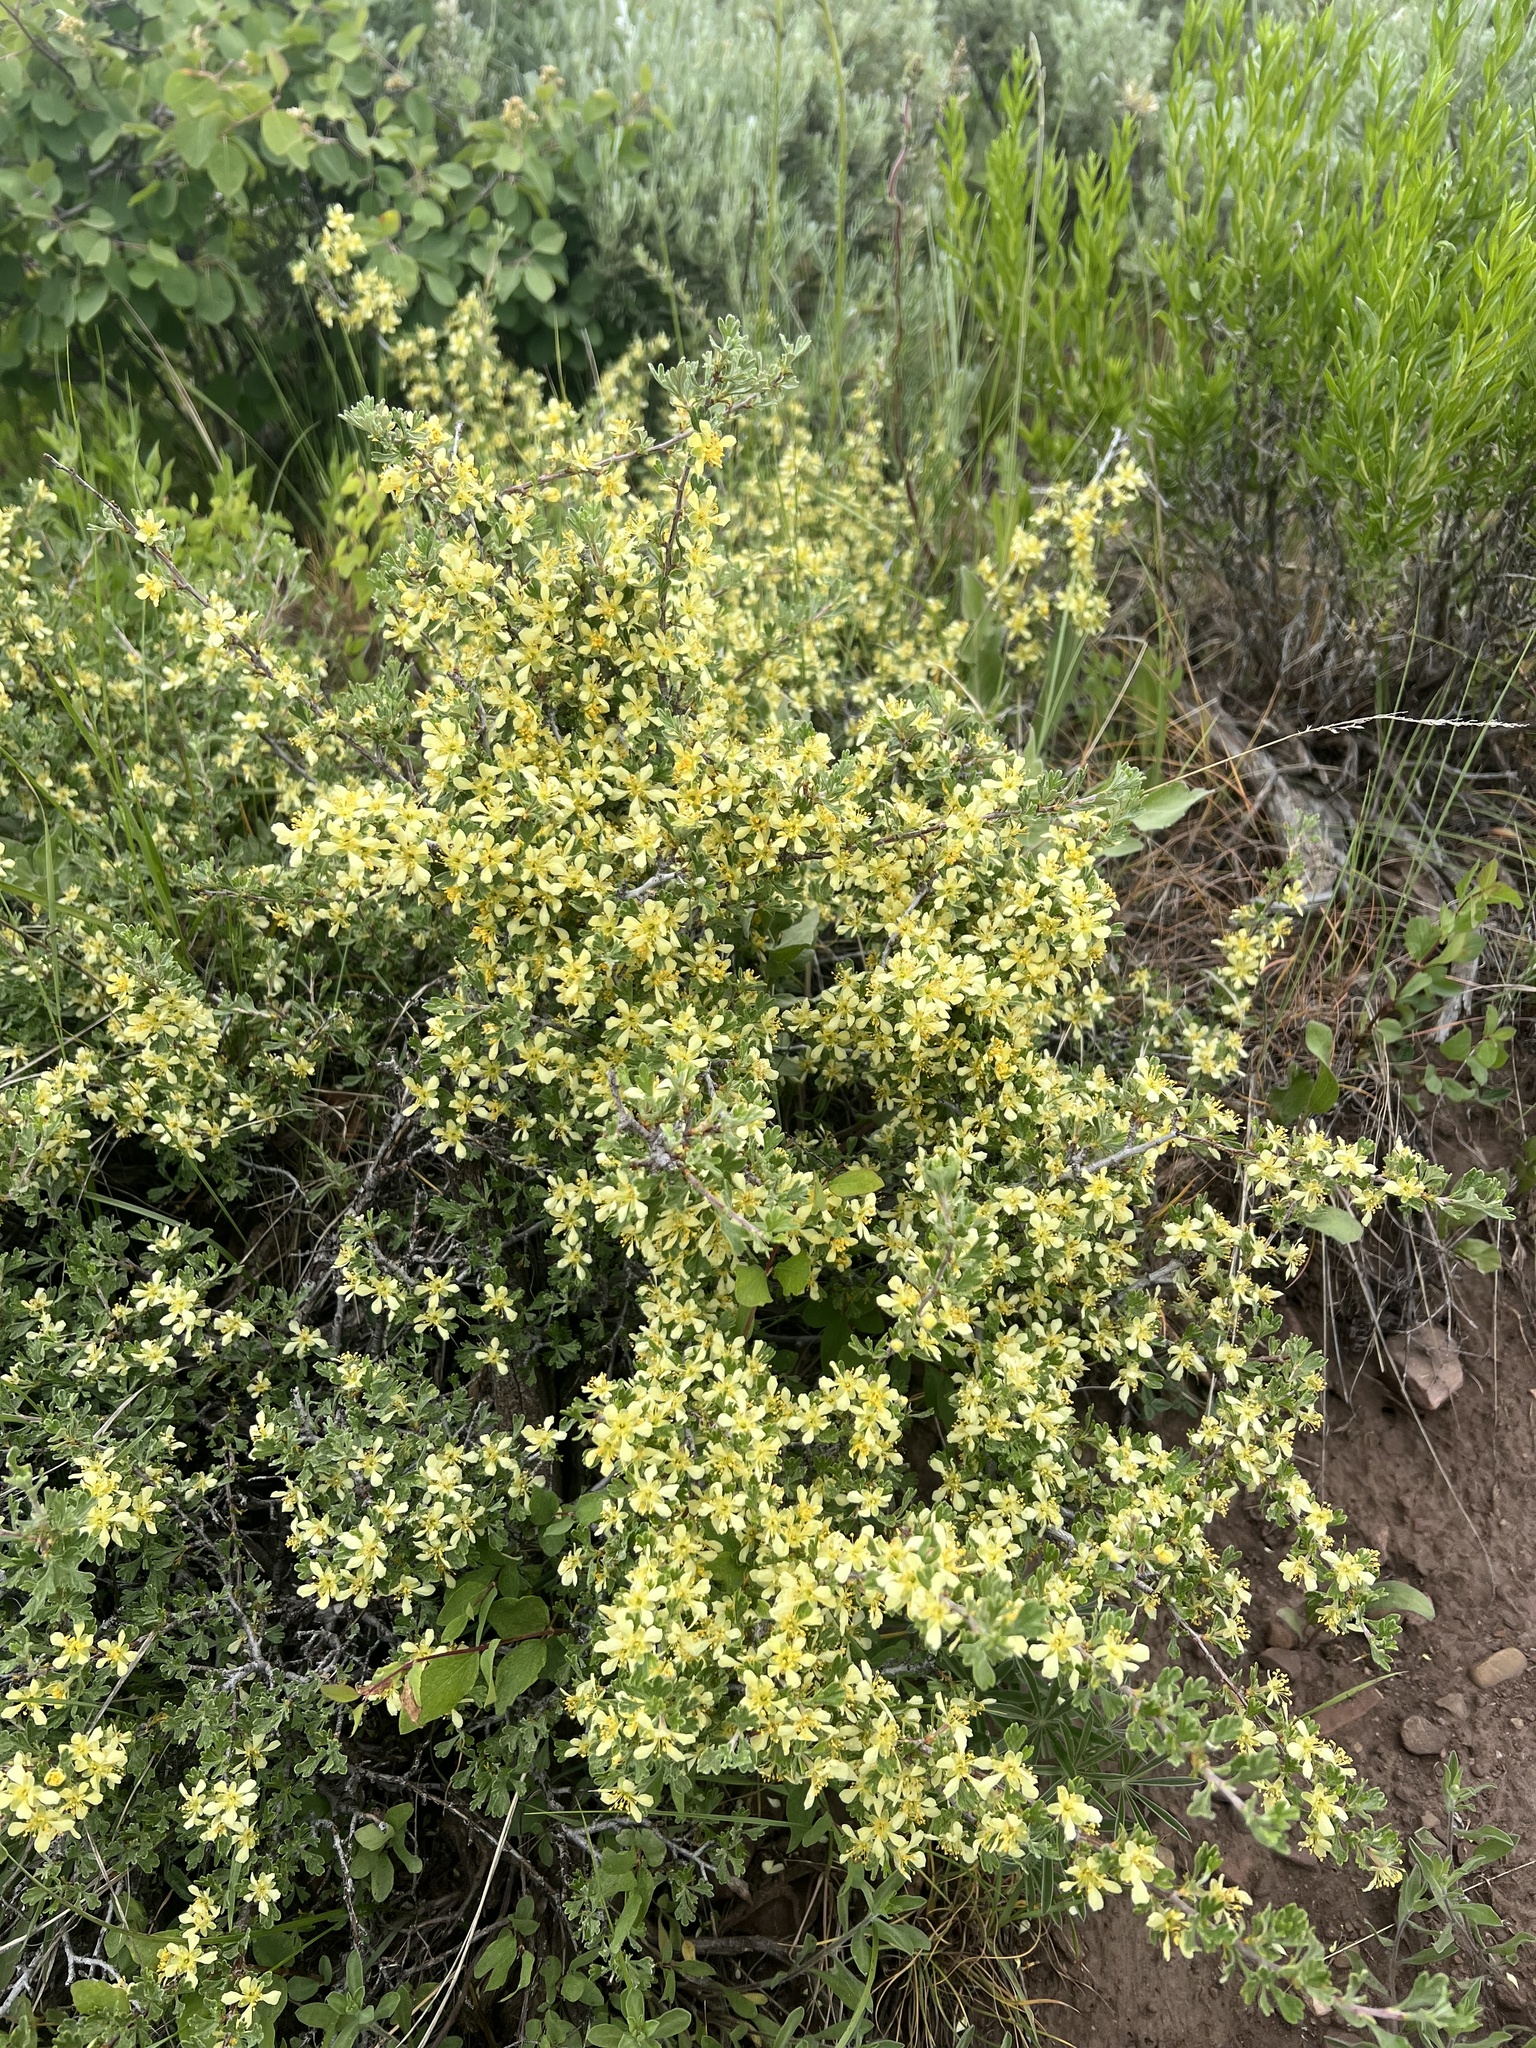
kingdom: Plantae
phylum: Tracheophyta
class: Magnoliopsida
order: Rosales
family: Rosaceae
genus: Purshia
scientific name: Purshia tridentata
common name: Antelope bitterbrush
